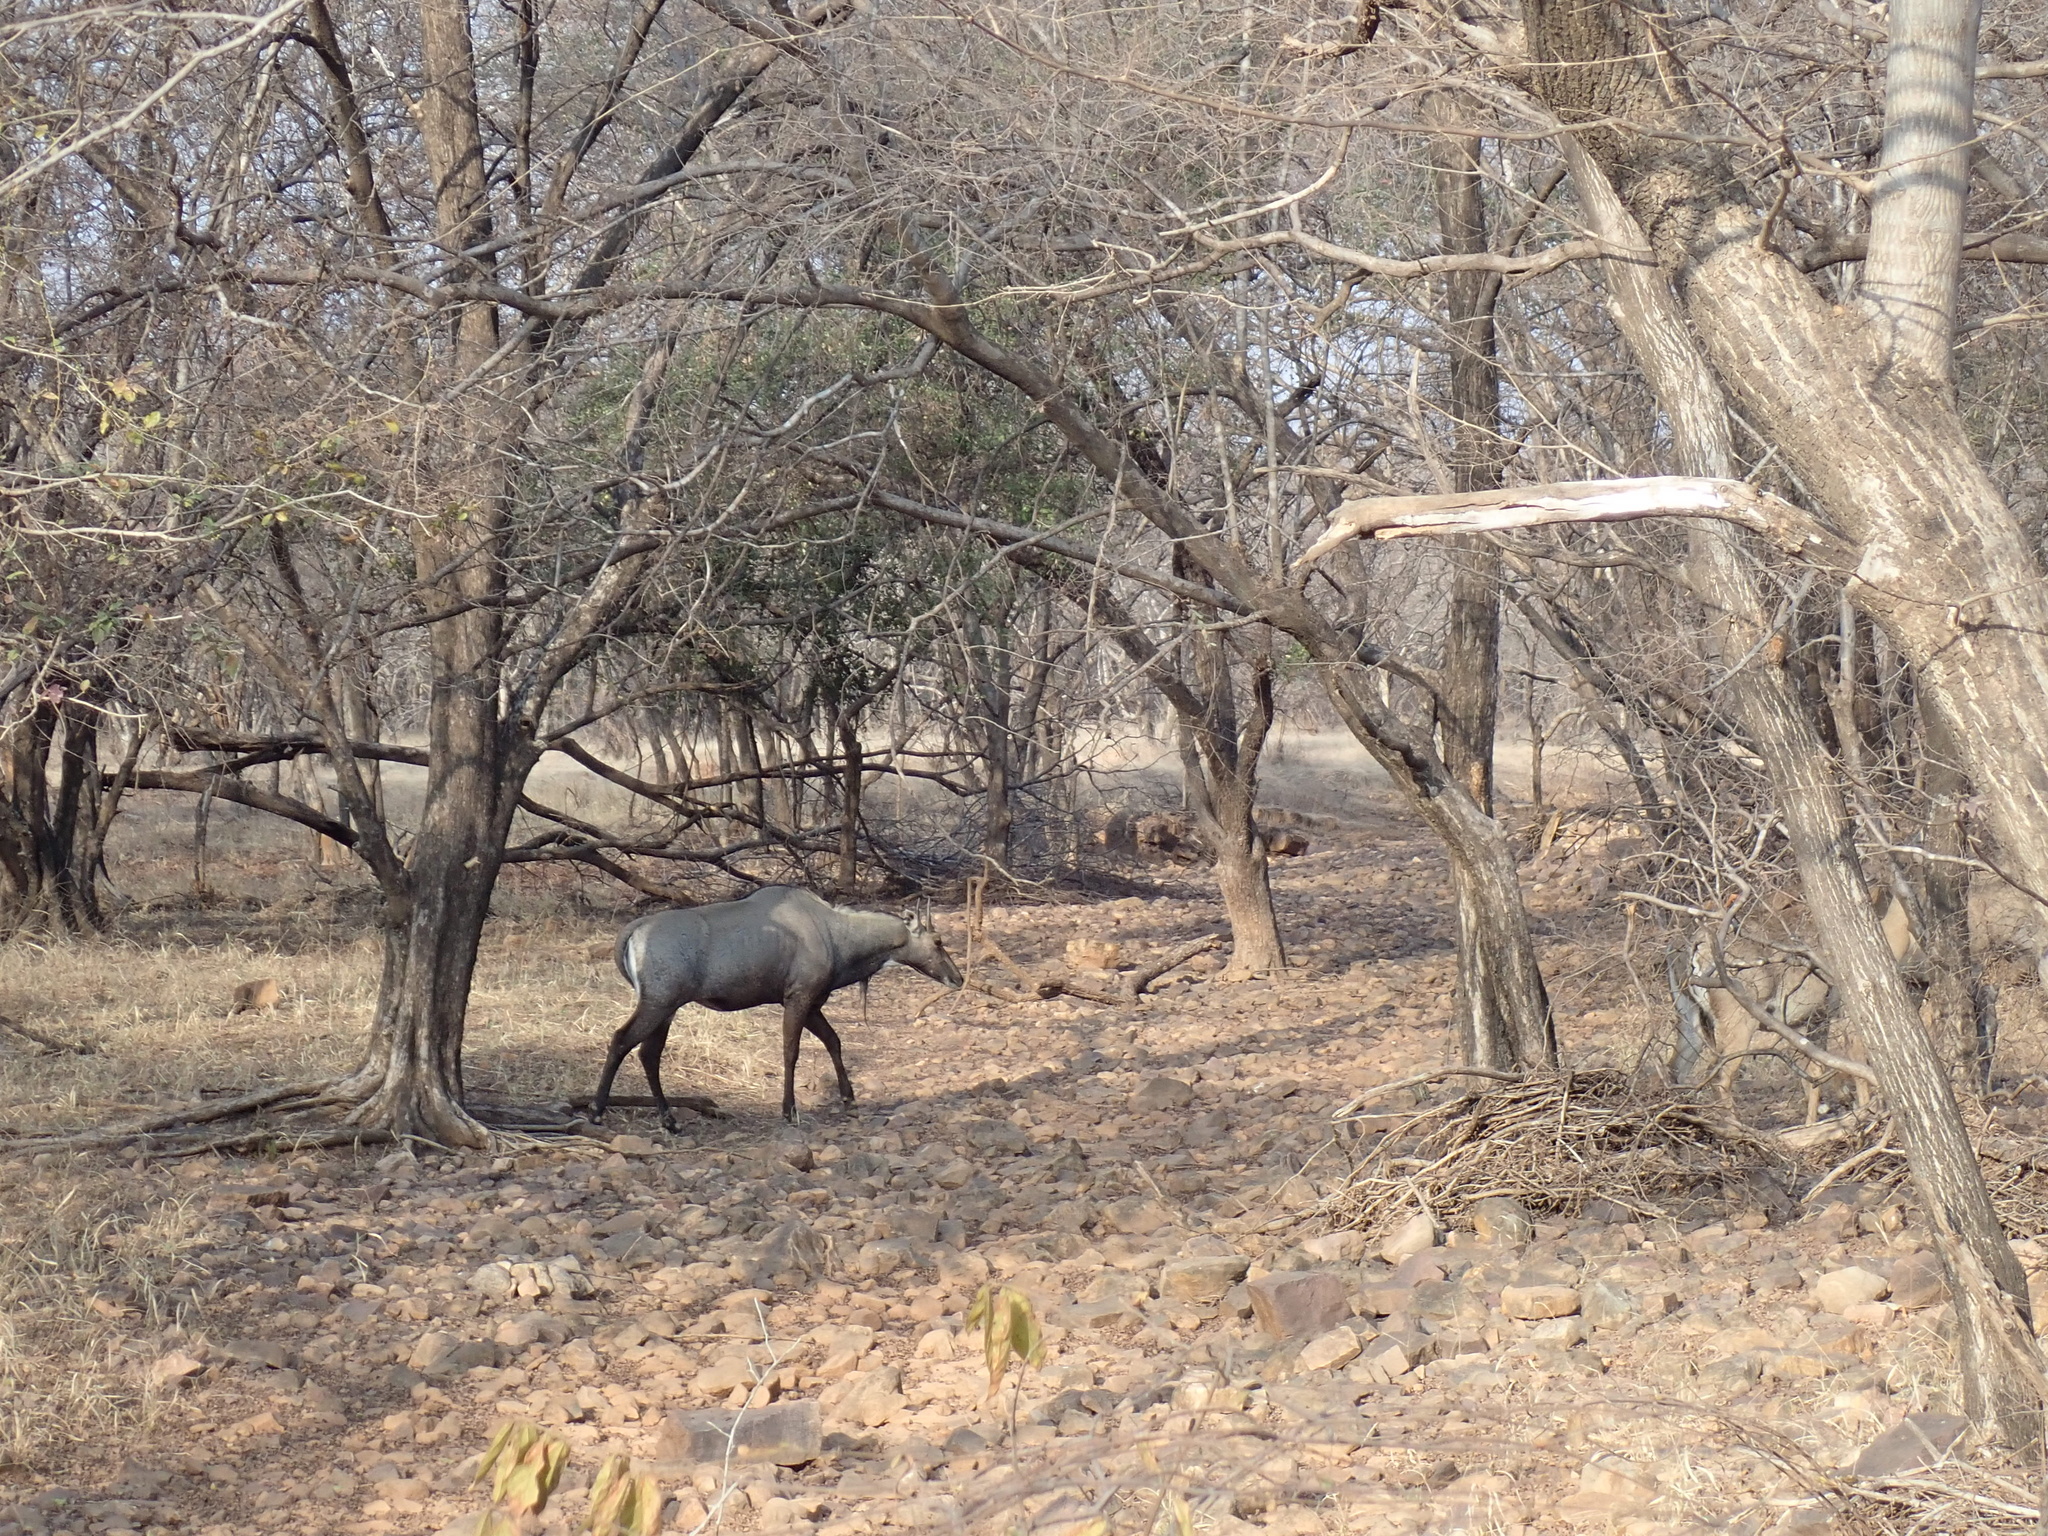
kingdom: Animalia
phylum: Chordata
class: Mammalia
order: Artiodactyla
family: Bovidae
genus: Boselaphus
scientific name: Boselaphus tragocamelus
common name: Nilgai
